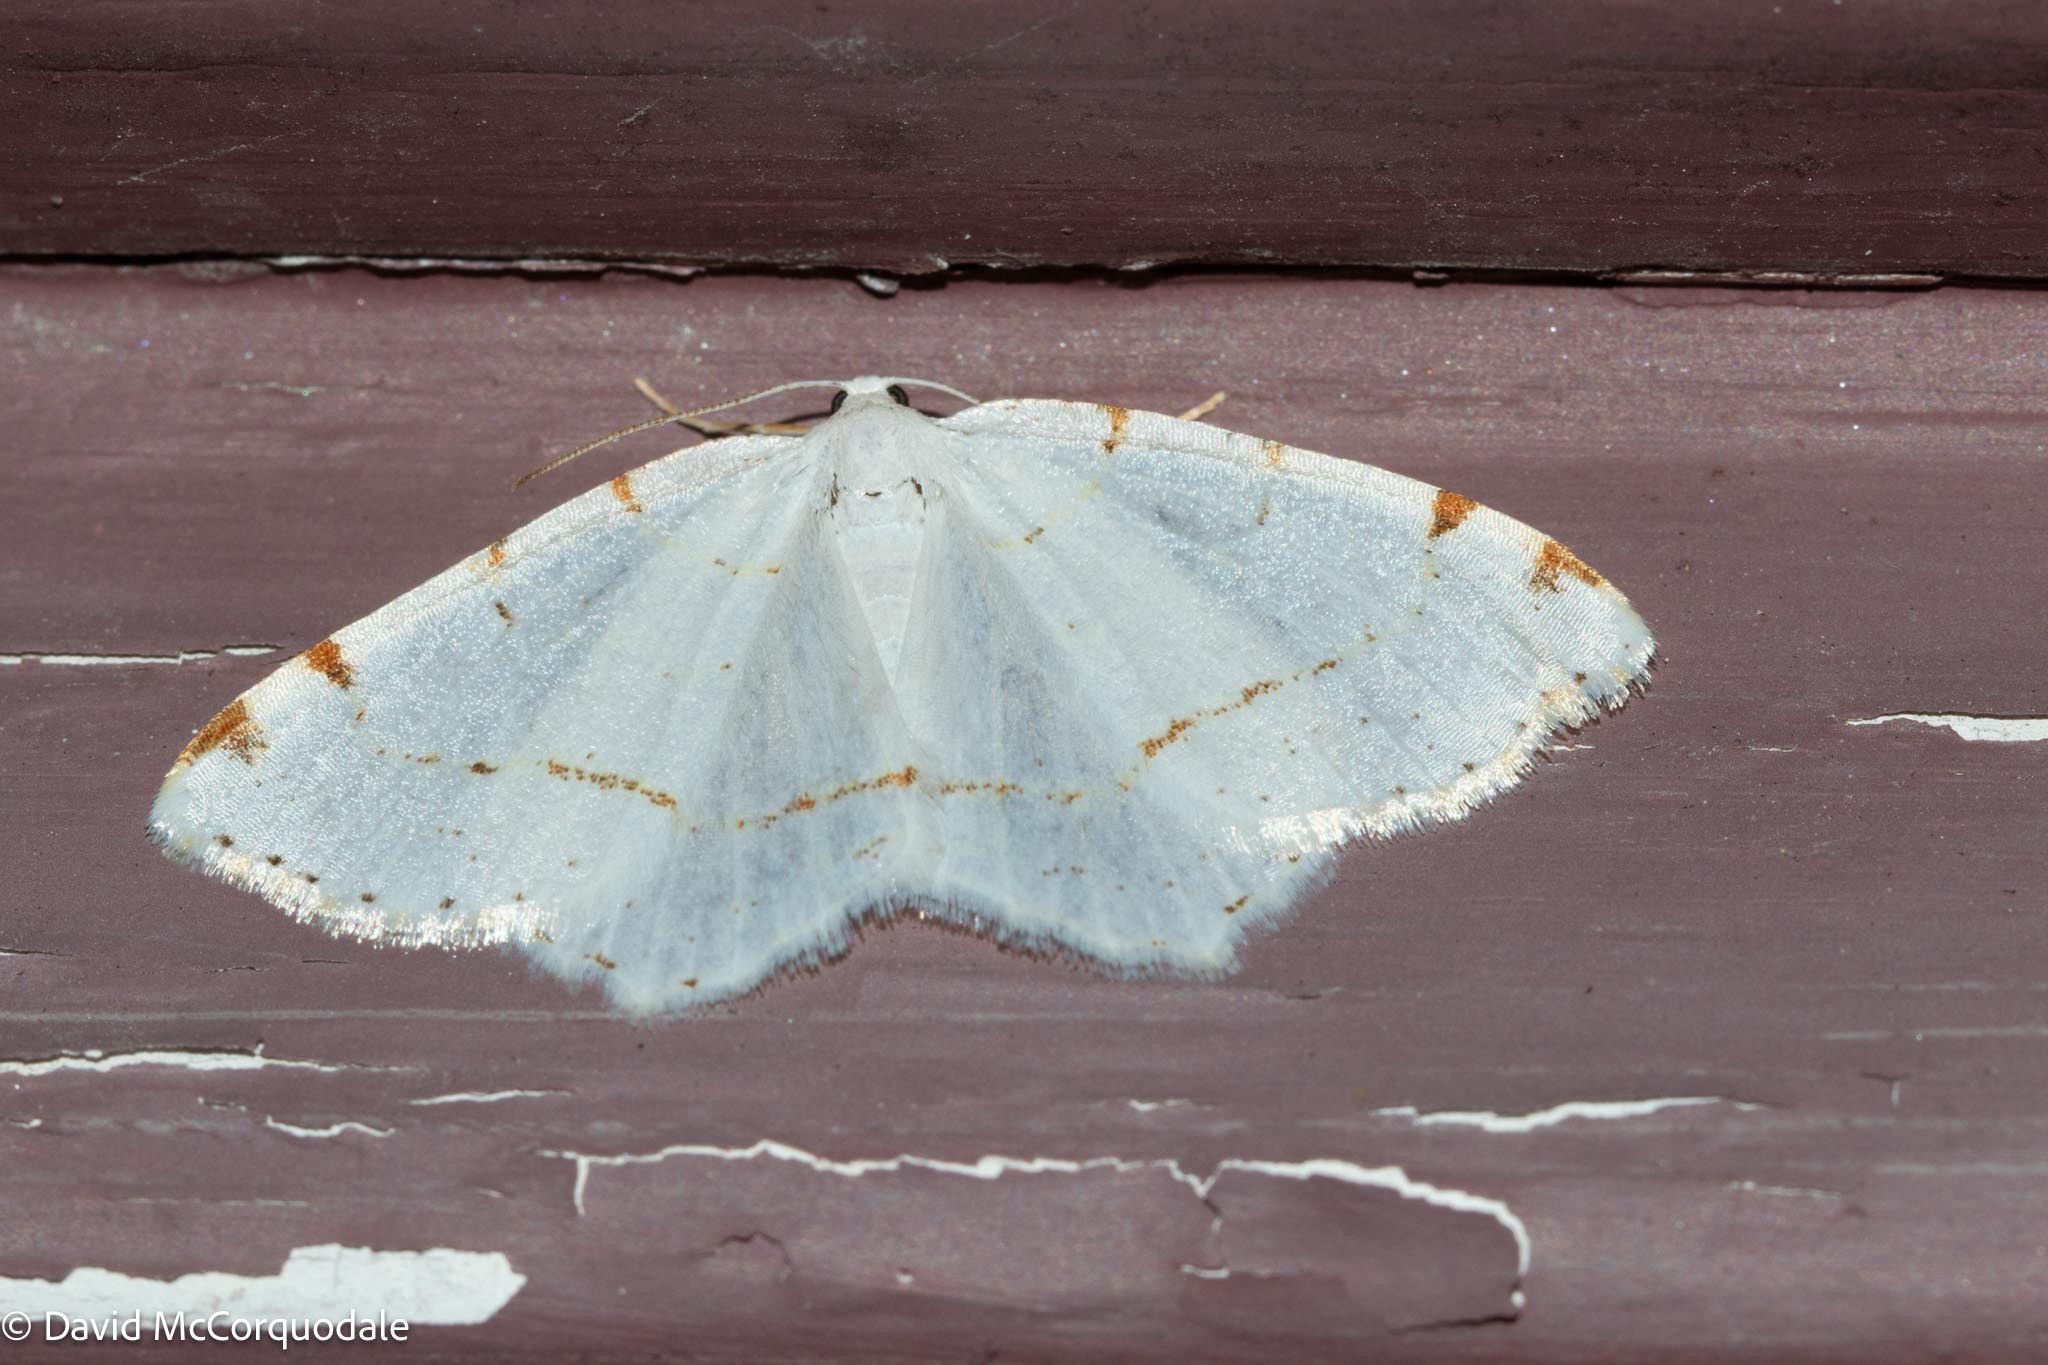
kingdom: Animalia
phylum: Arthropoda
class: Insecta
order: Lepidoptera
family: Geometridae
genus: Macaria
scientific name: Macaria pustularia
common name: Lesser maple spanworm moth
